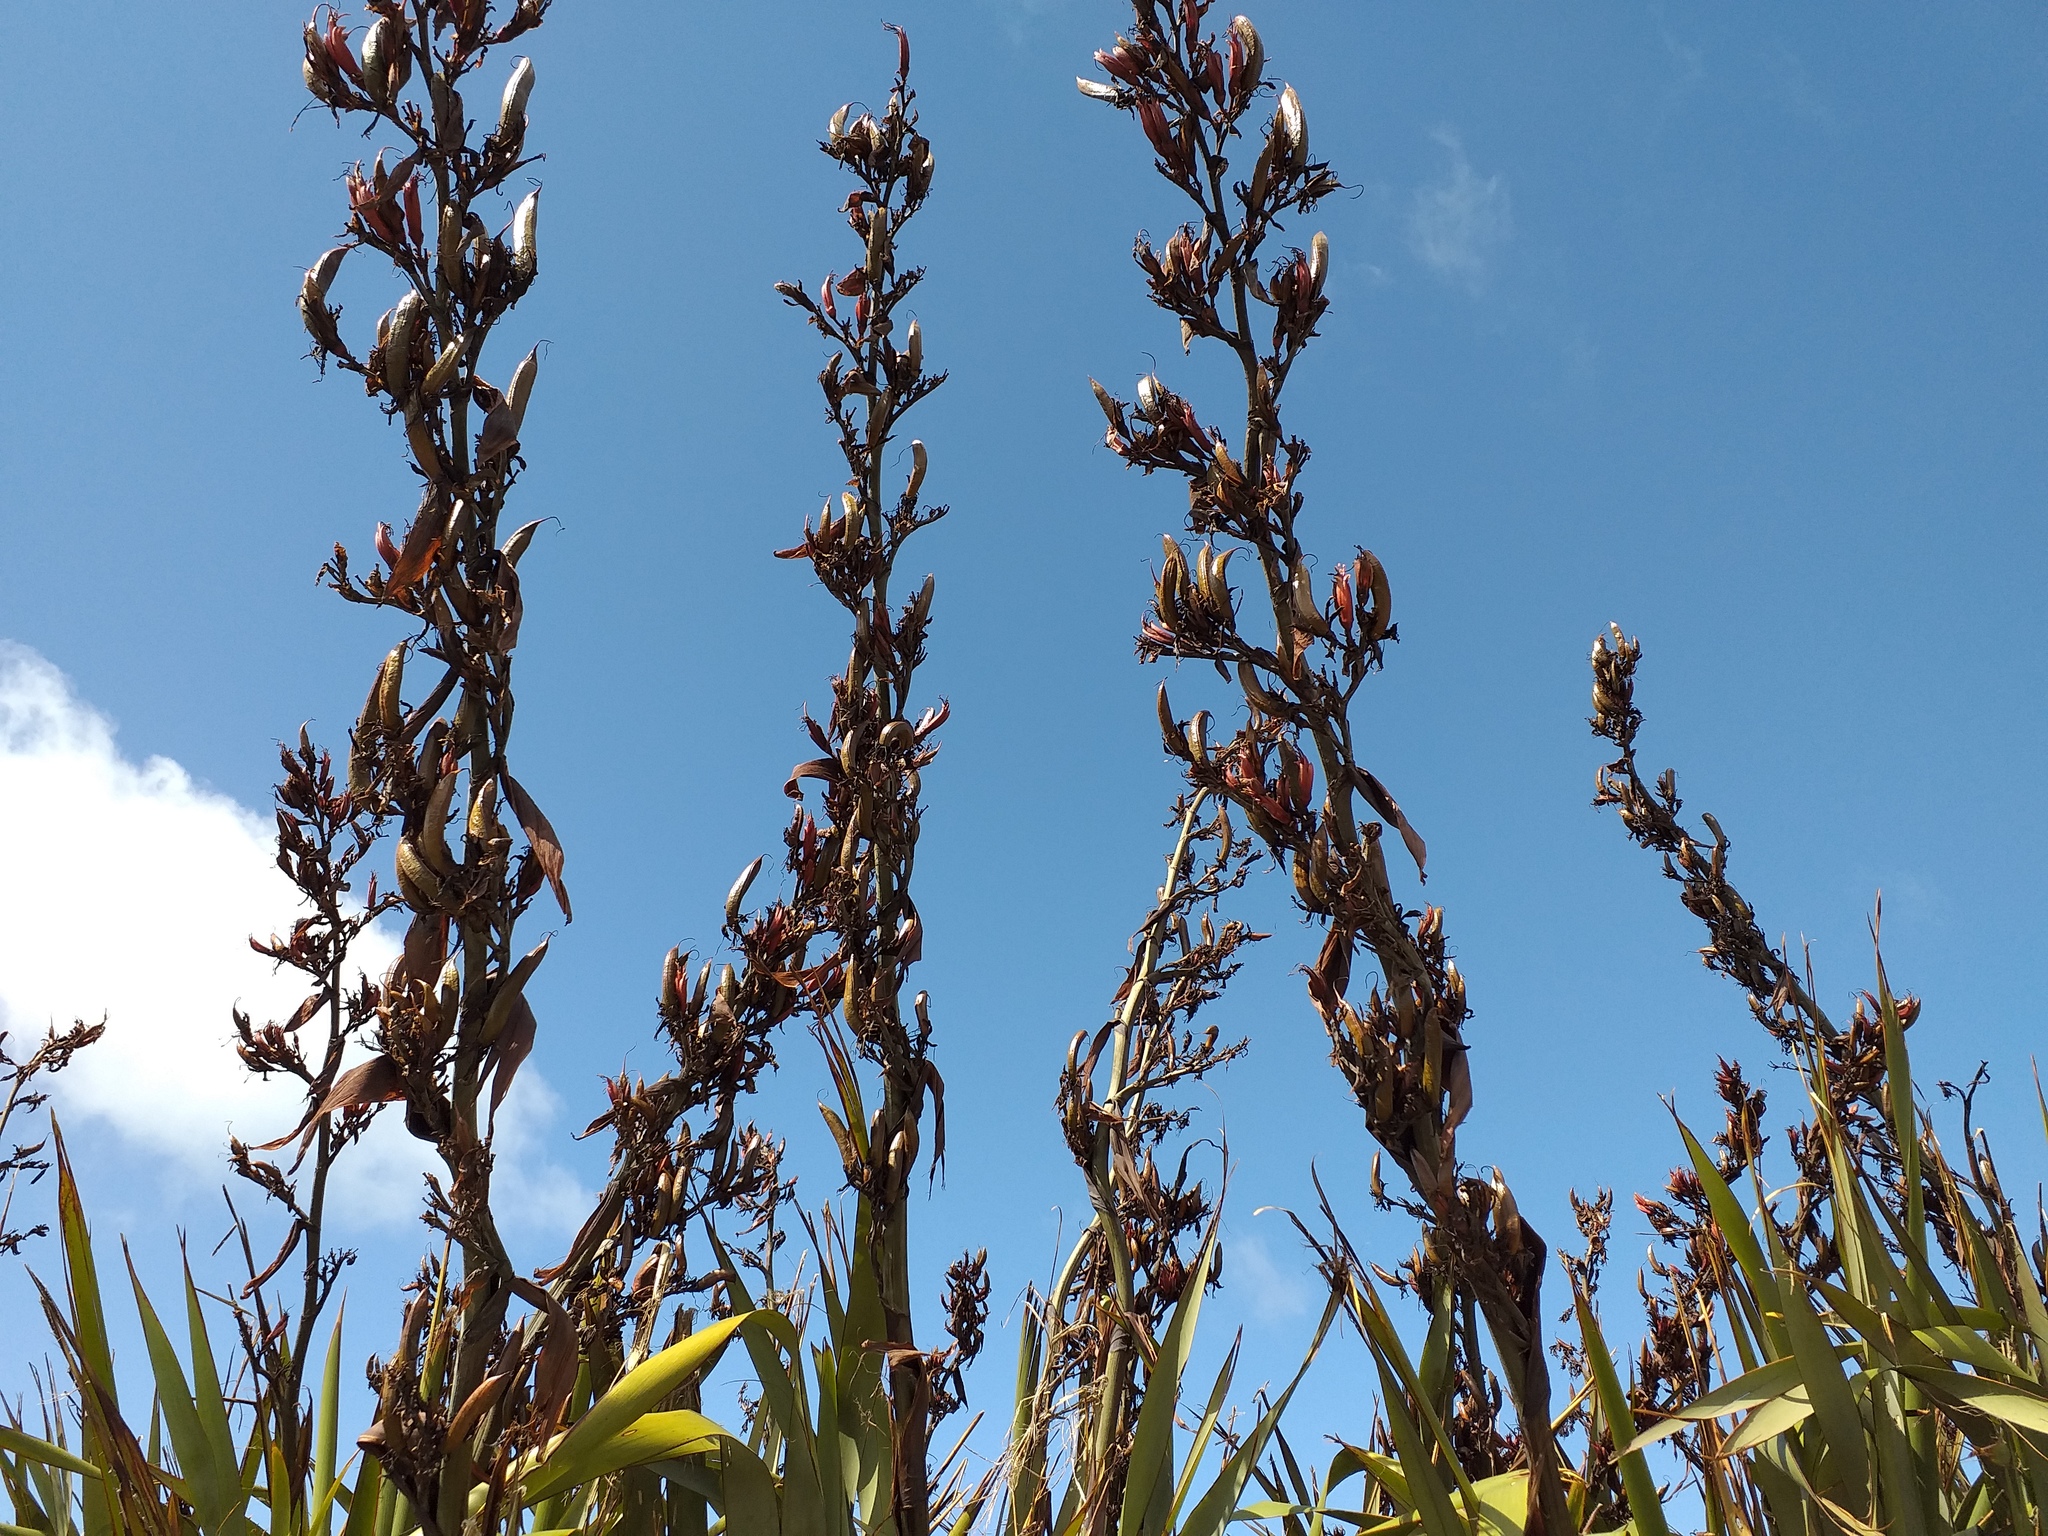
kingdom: Plantae
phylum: Tracheophyta
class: Liliopsida
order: Asparagales
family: Asphodelaceae
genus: Phormium
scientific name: Phormium tenax
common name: New zealand flax
